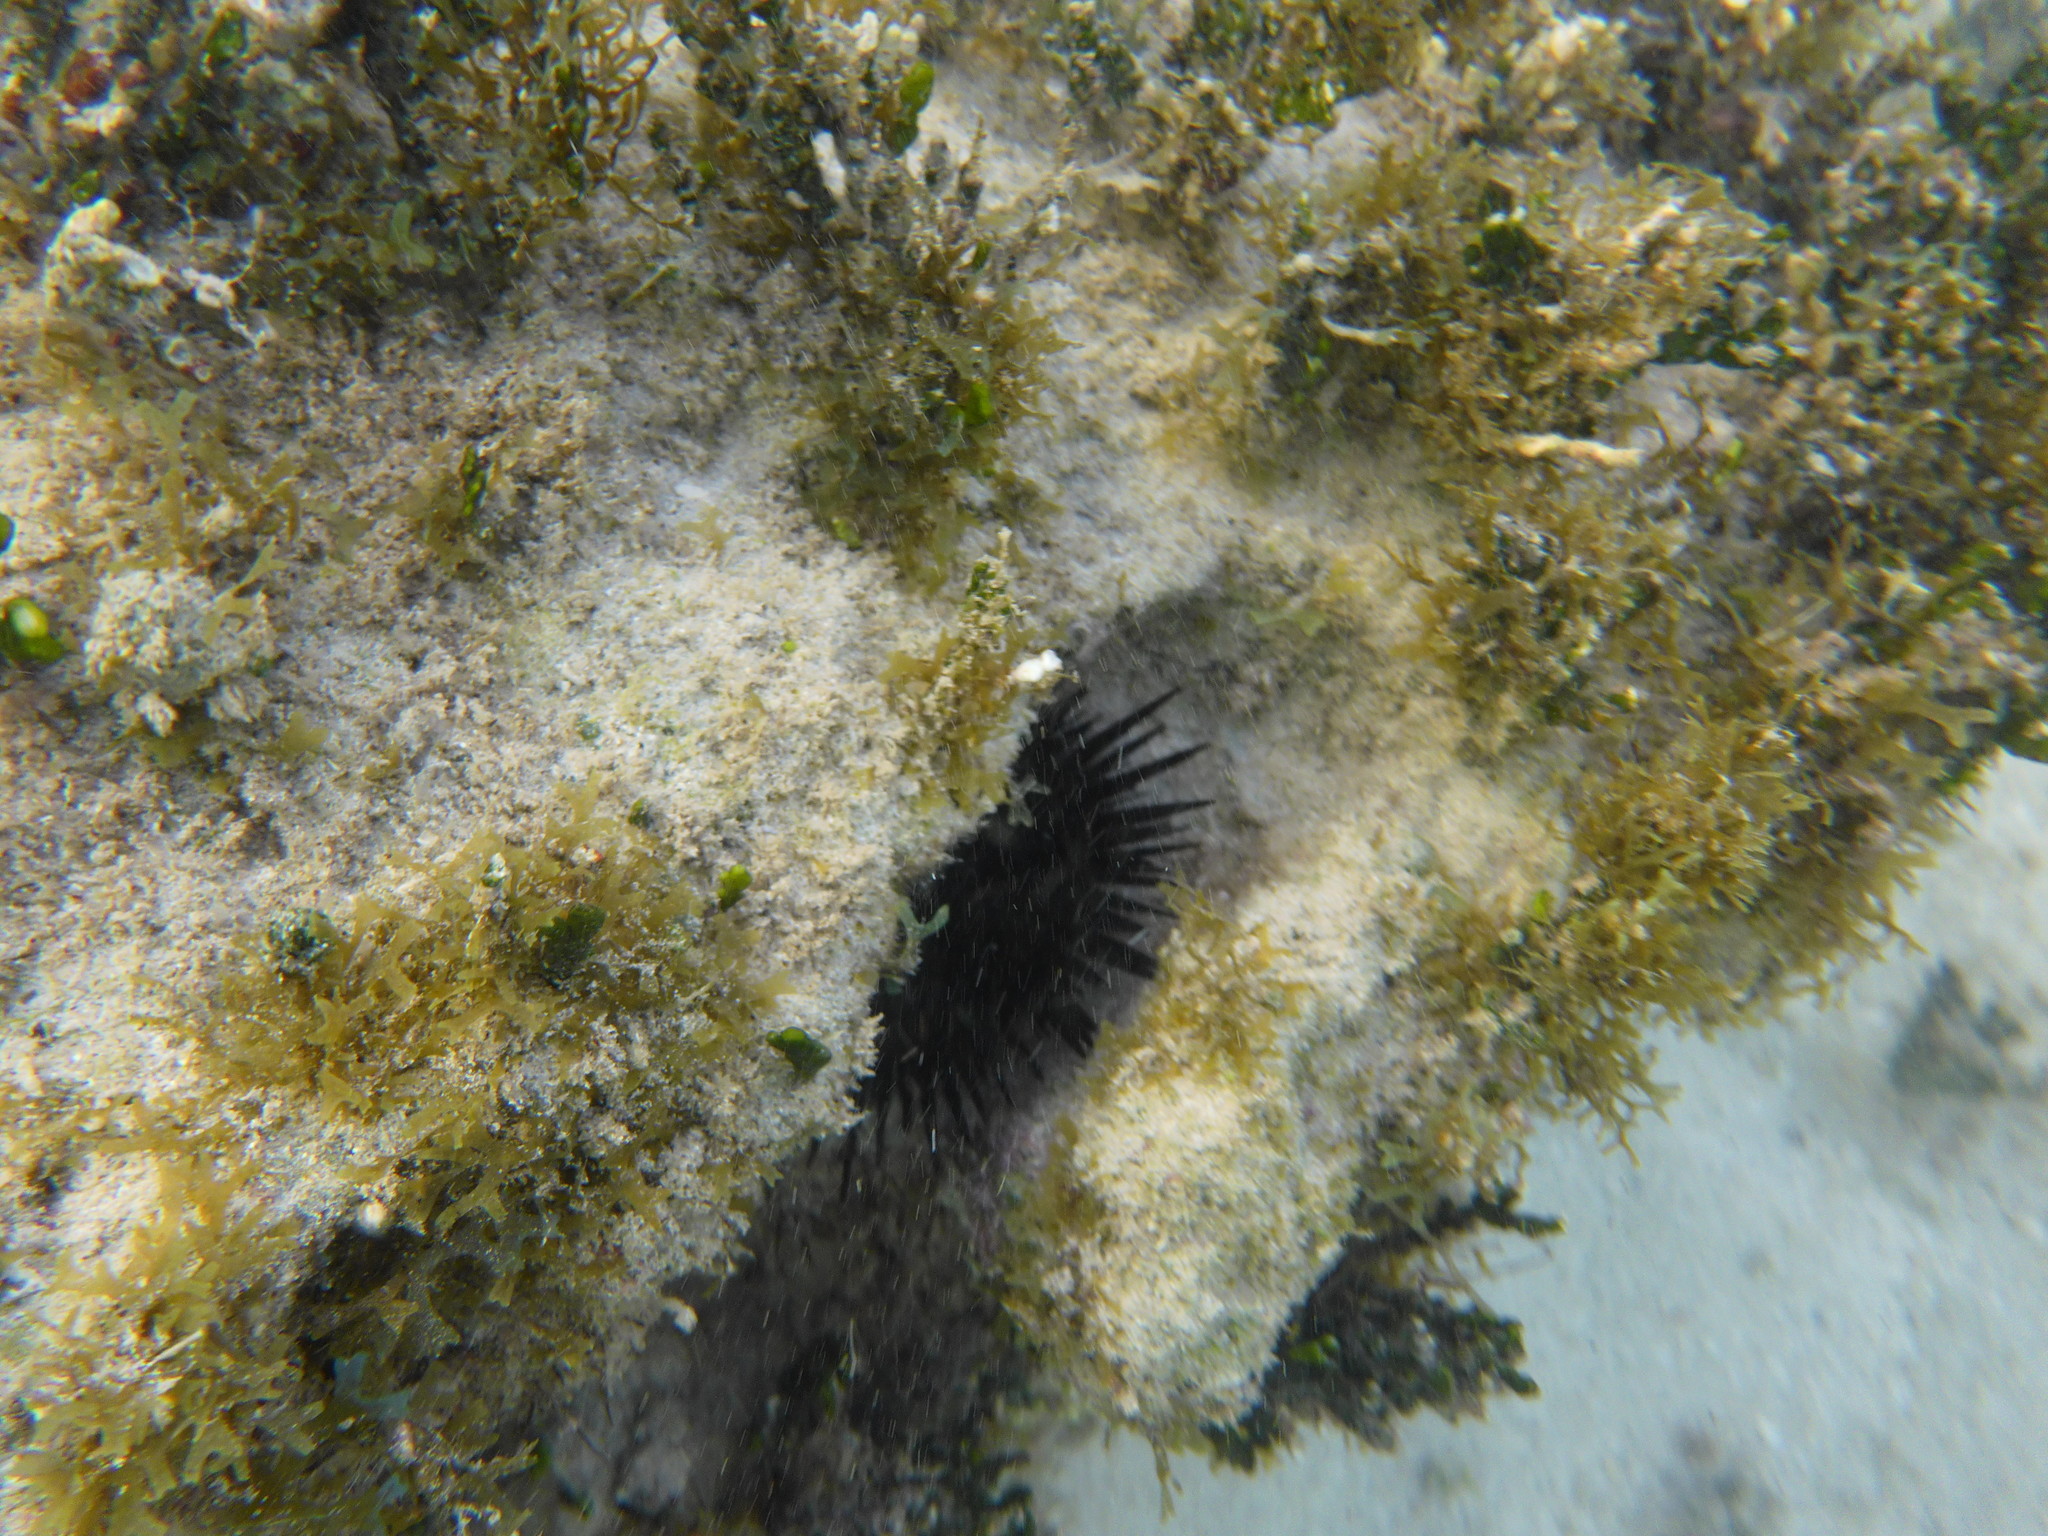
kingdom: Animalia
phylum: Echinodermata
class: Echinoidea
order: Camarodonta
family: Echinometridae
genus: Echinometra
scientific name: Echinometra lucunter
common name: Rock urchin
